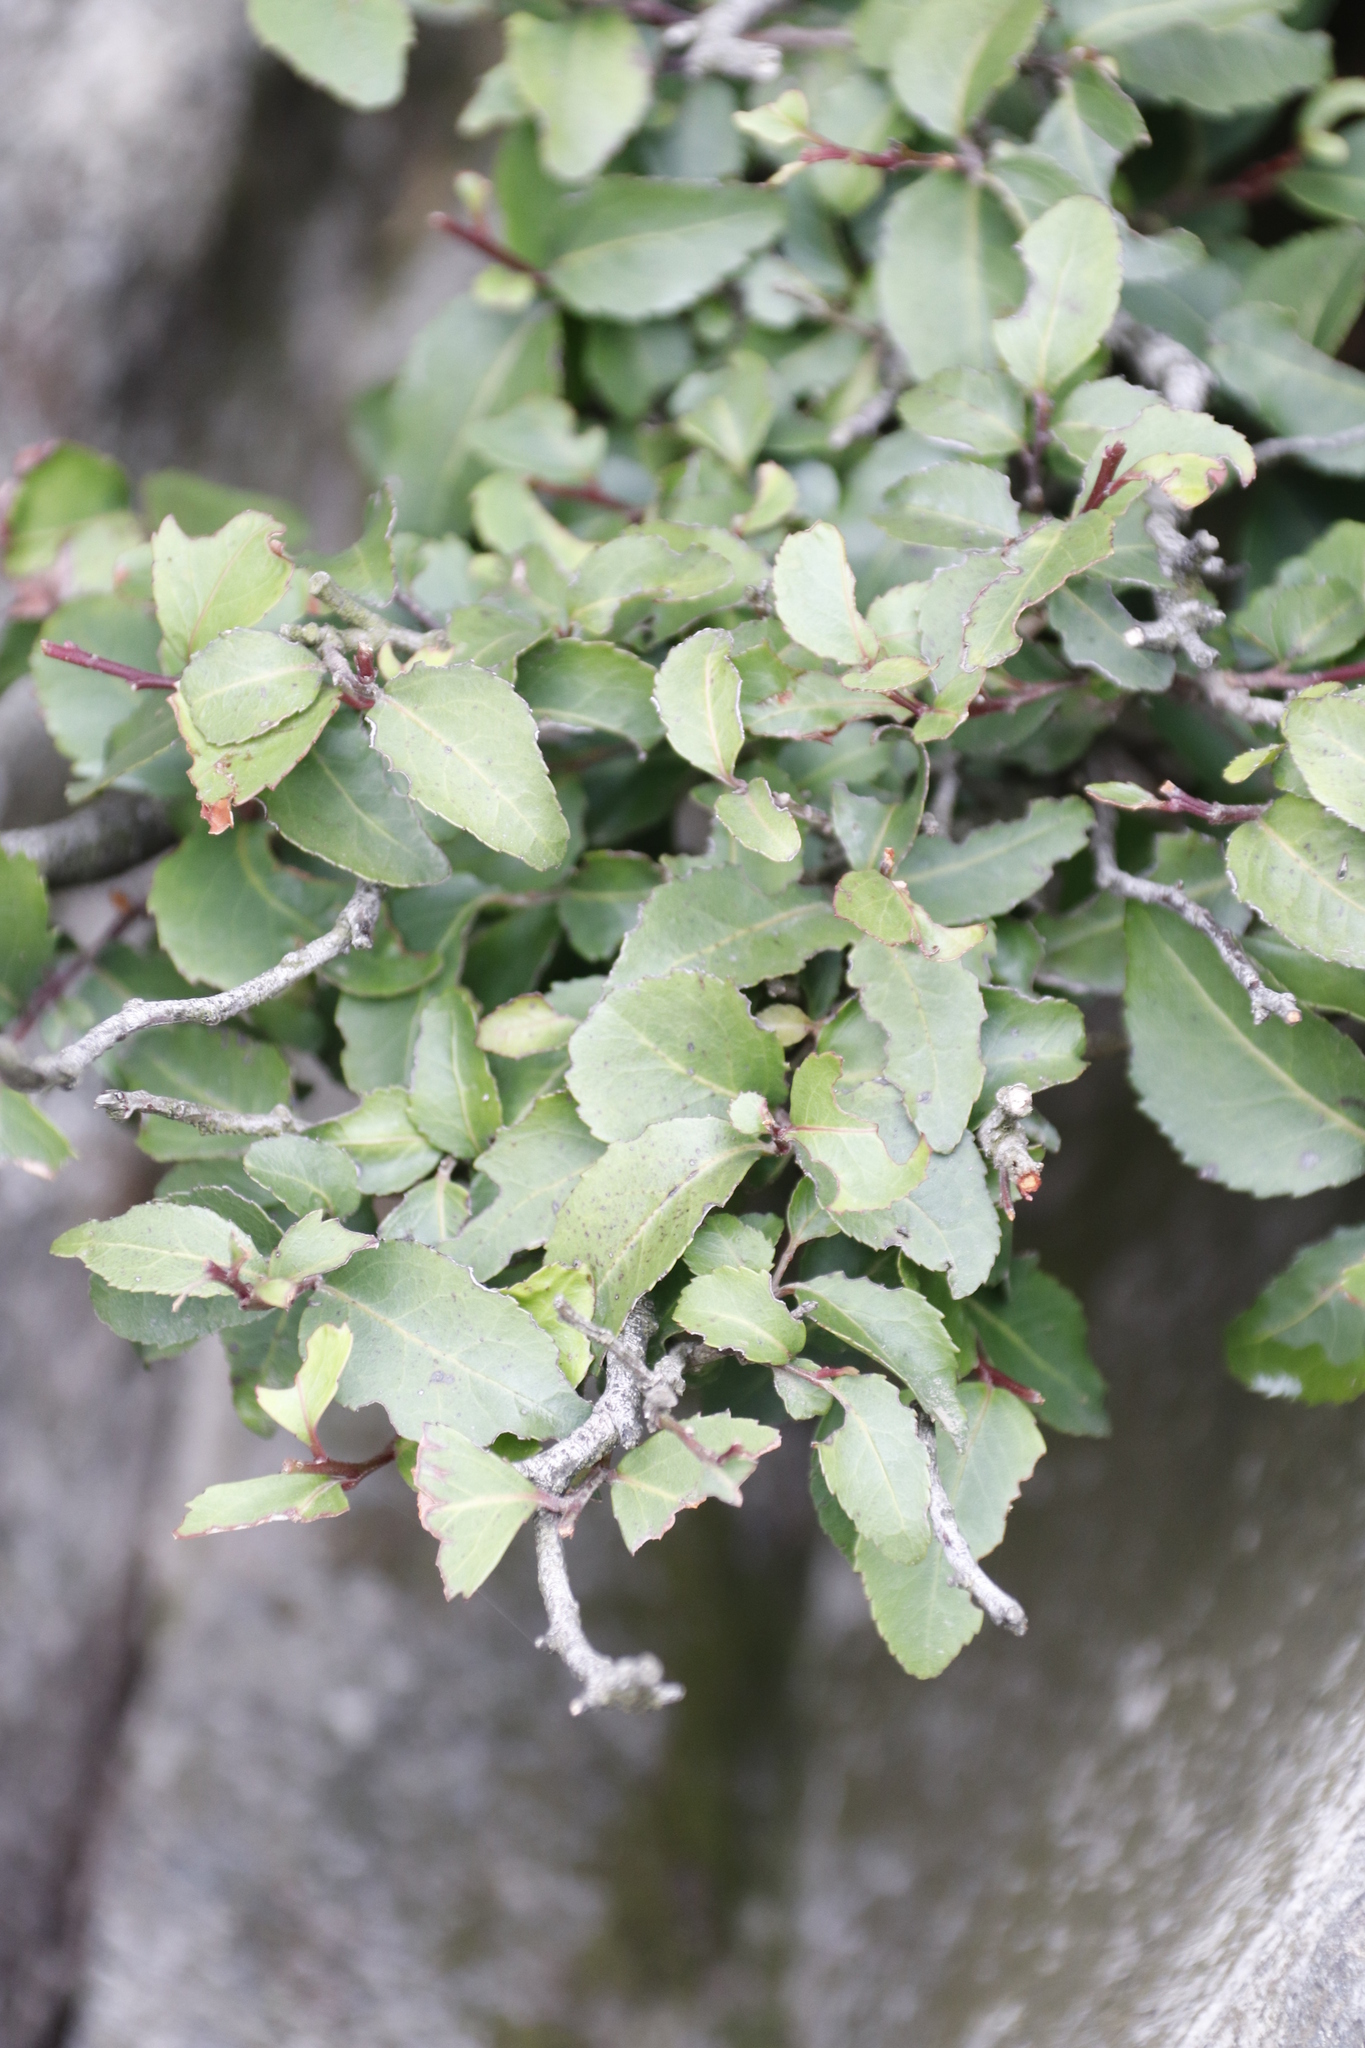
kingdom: Plantae
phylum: Tracheophyta
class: Magnoliopsida
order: Celastrales
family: Celastraceae
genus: Gymnosporia
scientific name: Gymnosporia acuminata
